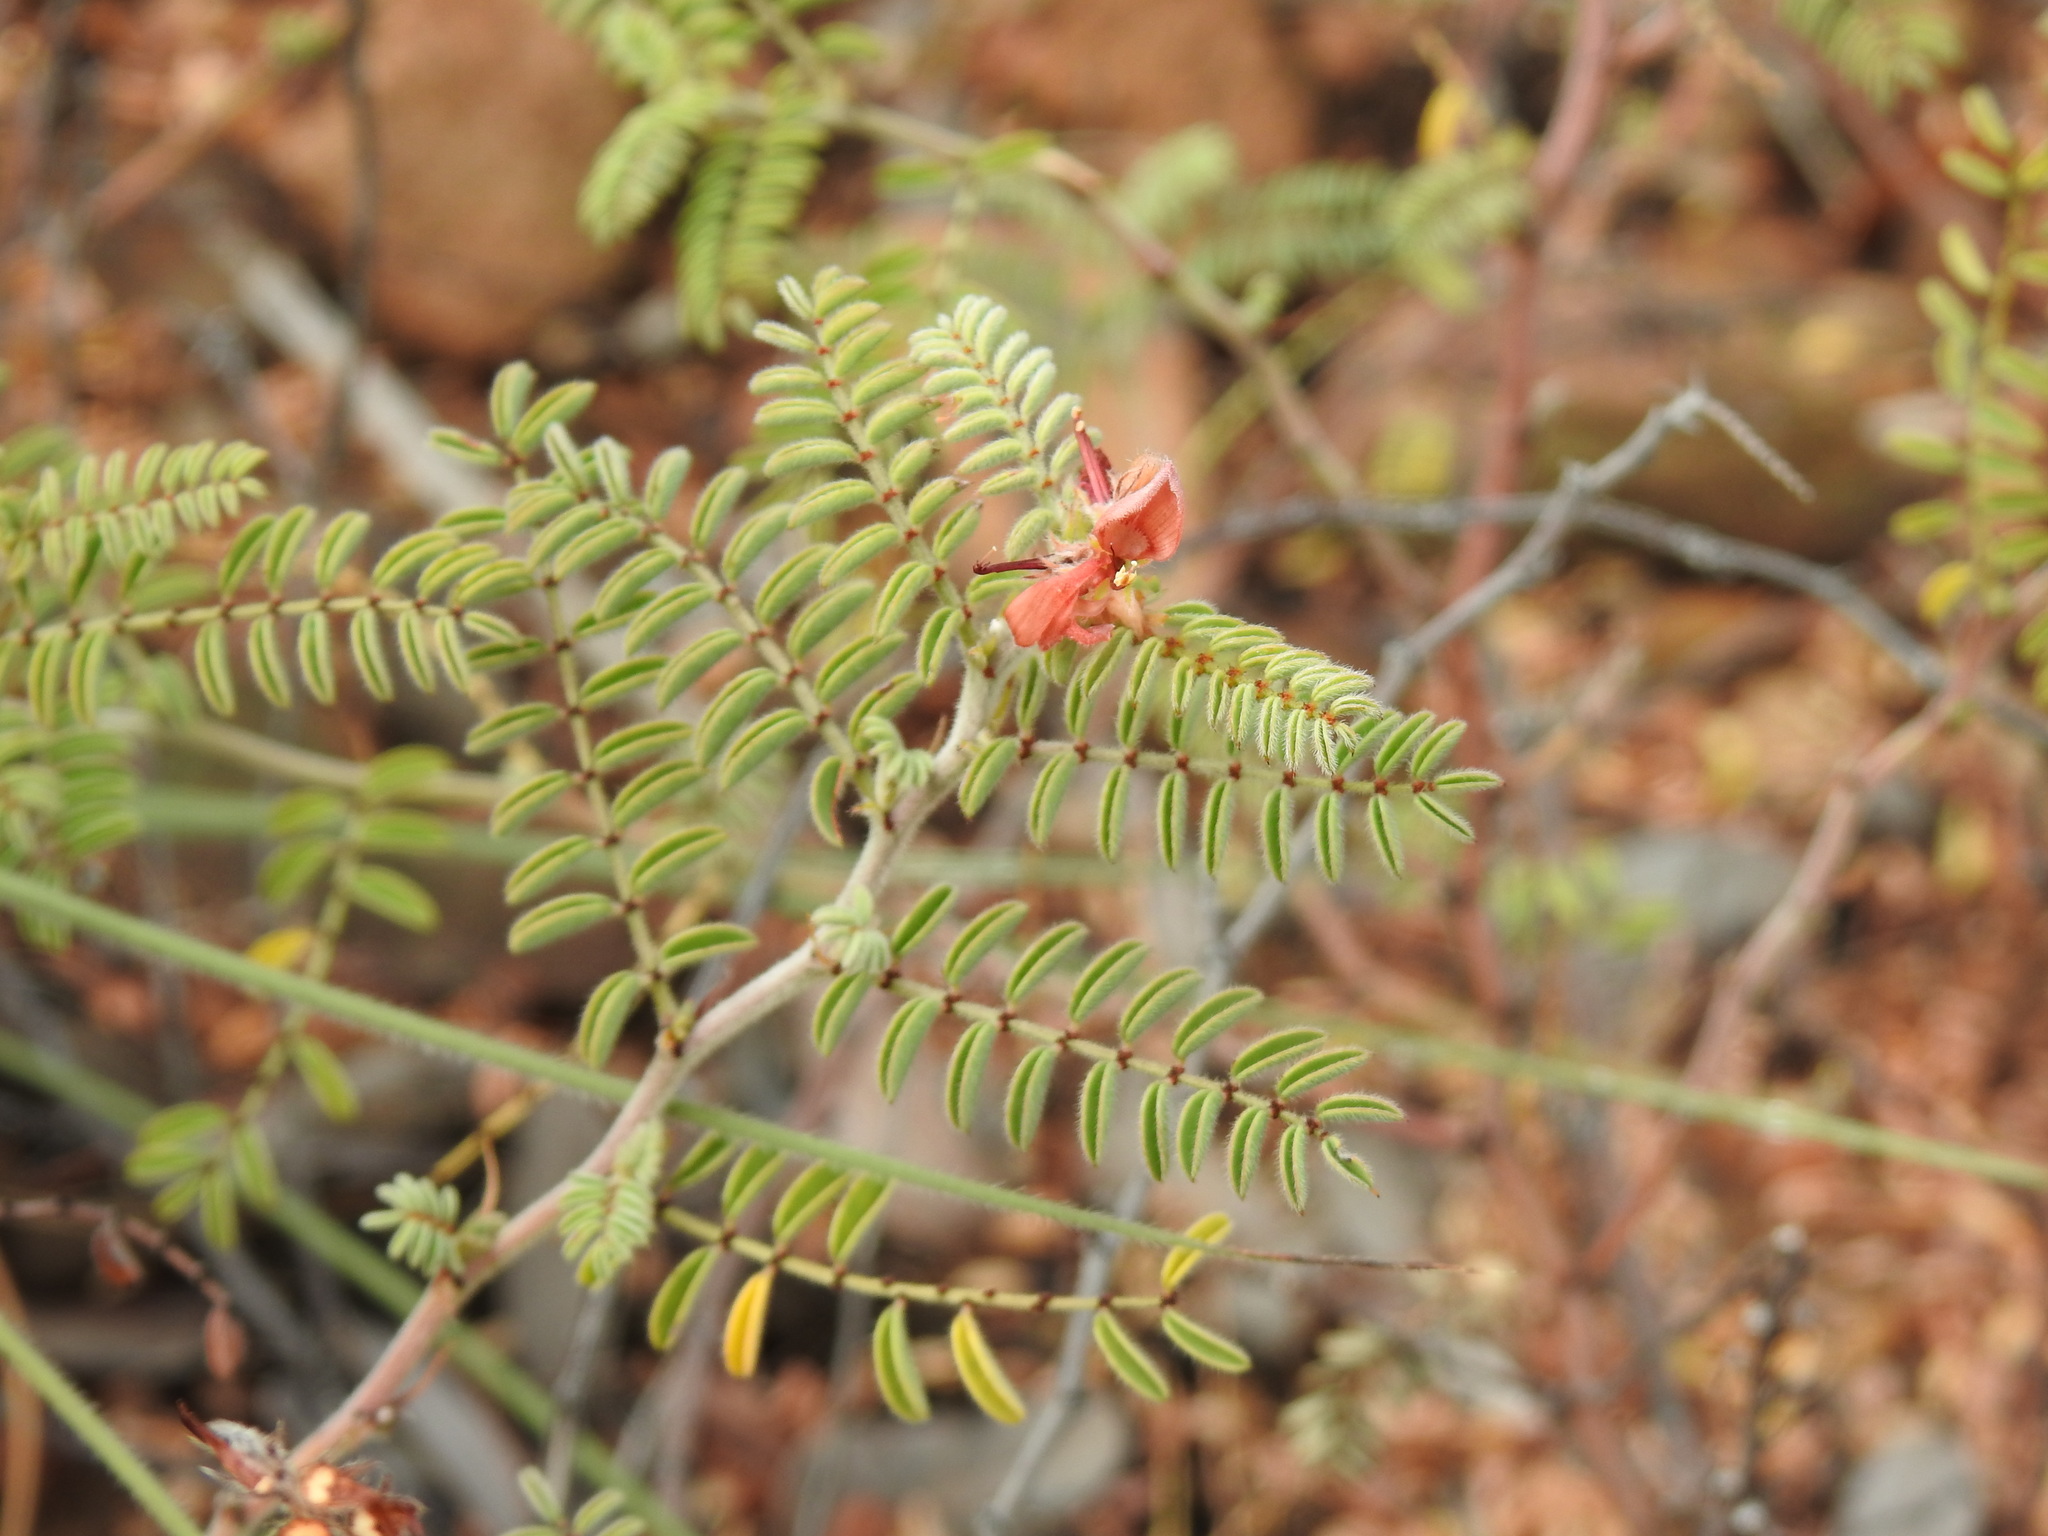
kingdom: Plantae
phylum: Tracheophyta
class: Magnoliopsida
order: Fabales
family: Fabaceae
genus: Indigofera
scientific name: Indigofera comosa
